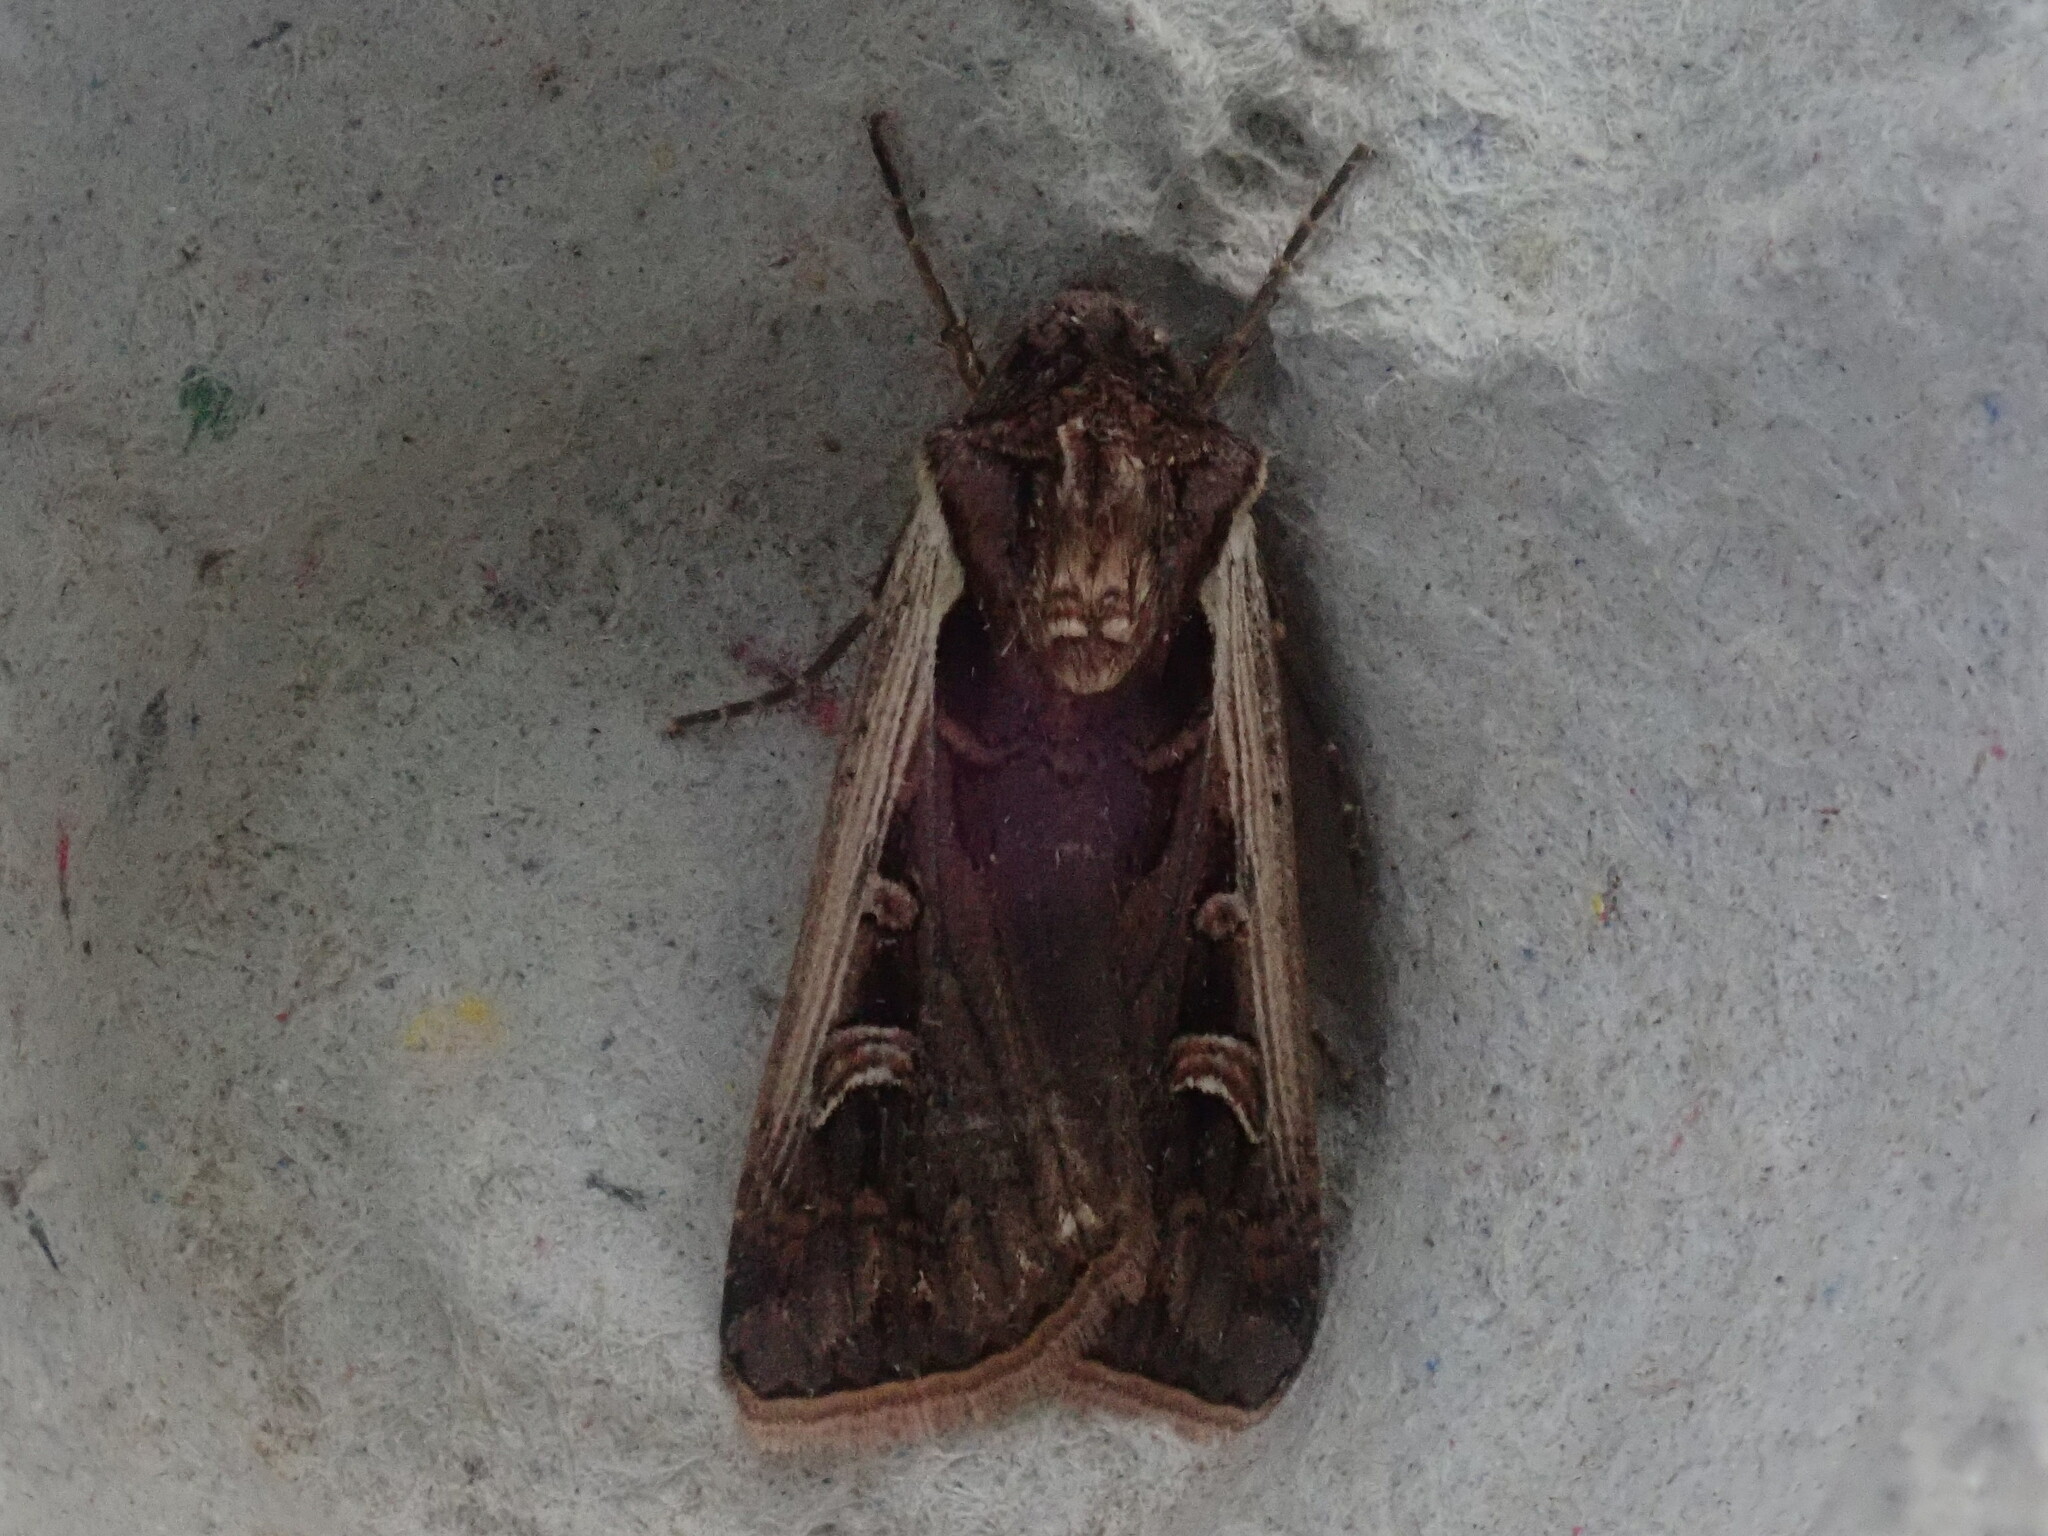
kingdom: Animalia
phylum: Arthropoda
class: Insecta
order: Lepidoptera
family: Noctuidae
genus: Striacosta
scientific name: Striacosta albicosta
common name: Western bean cutworm moth
